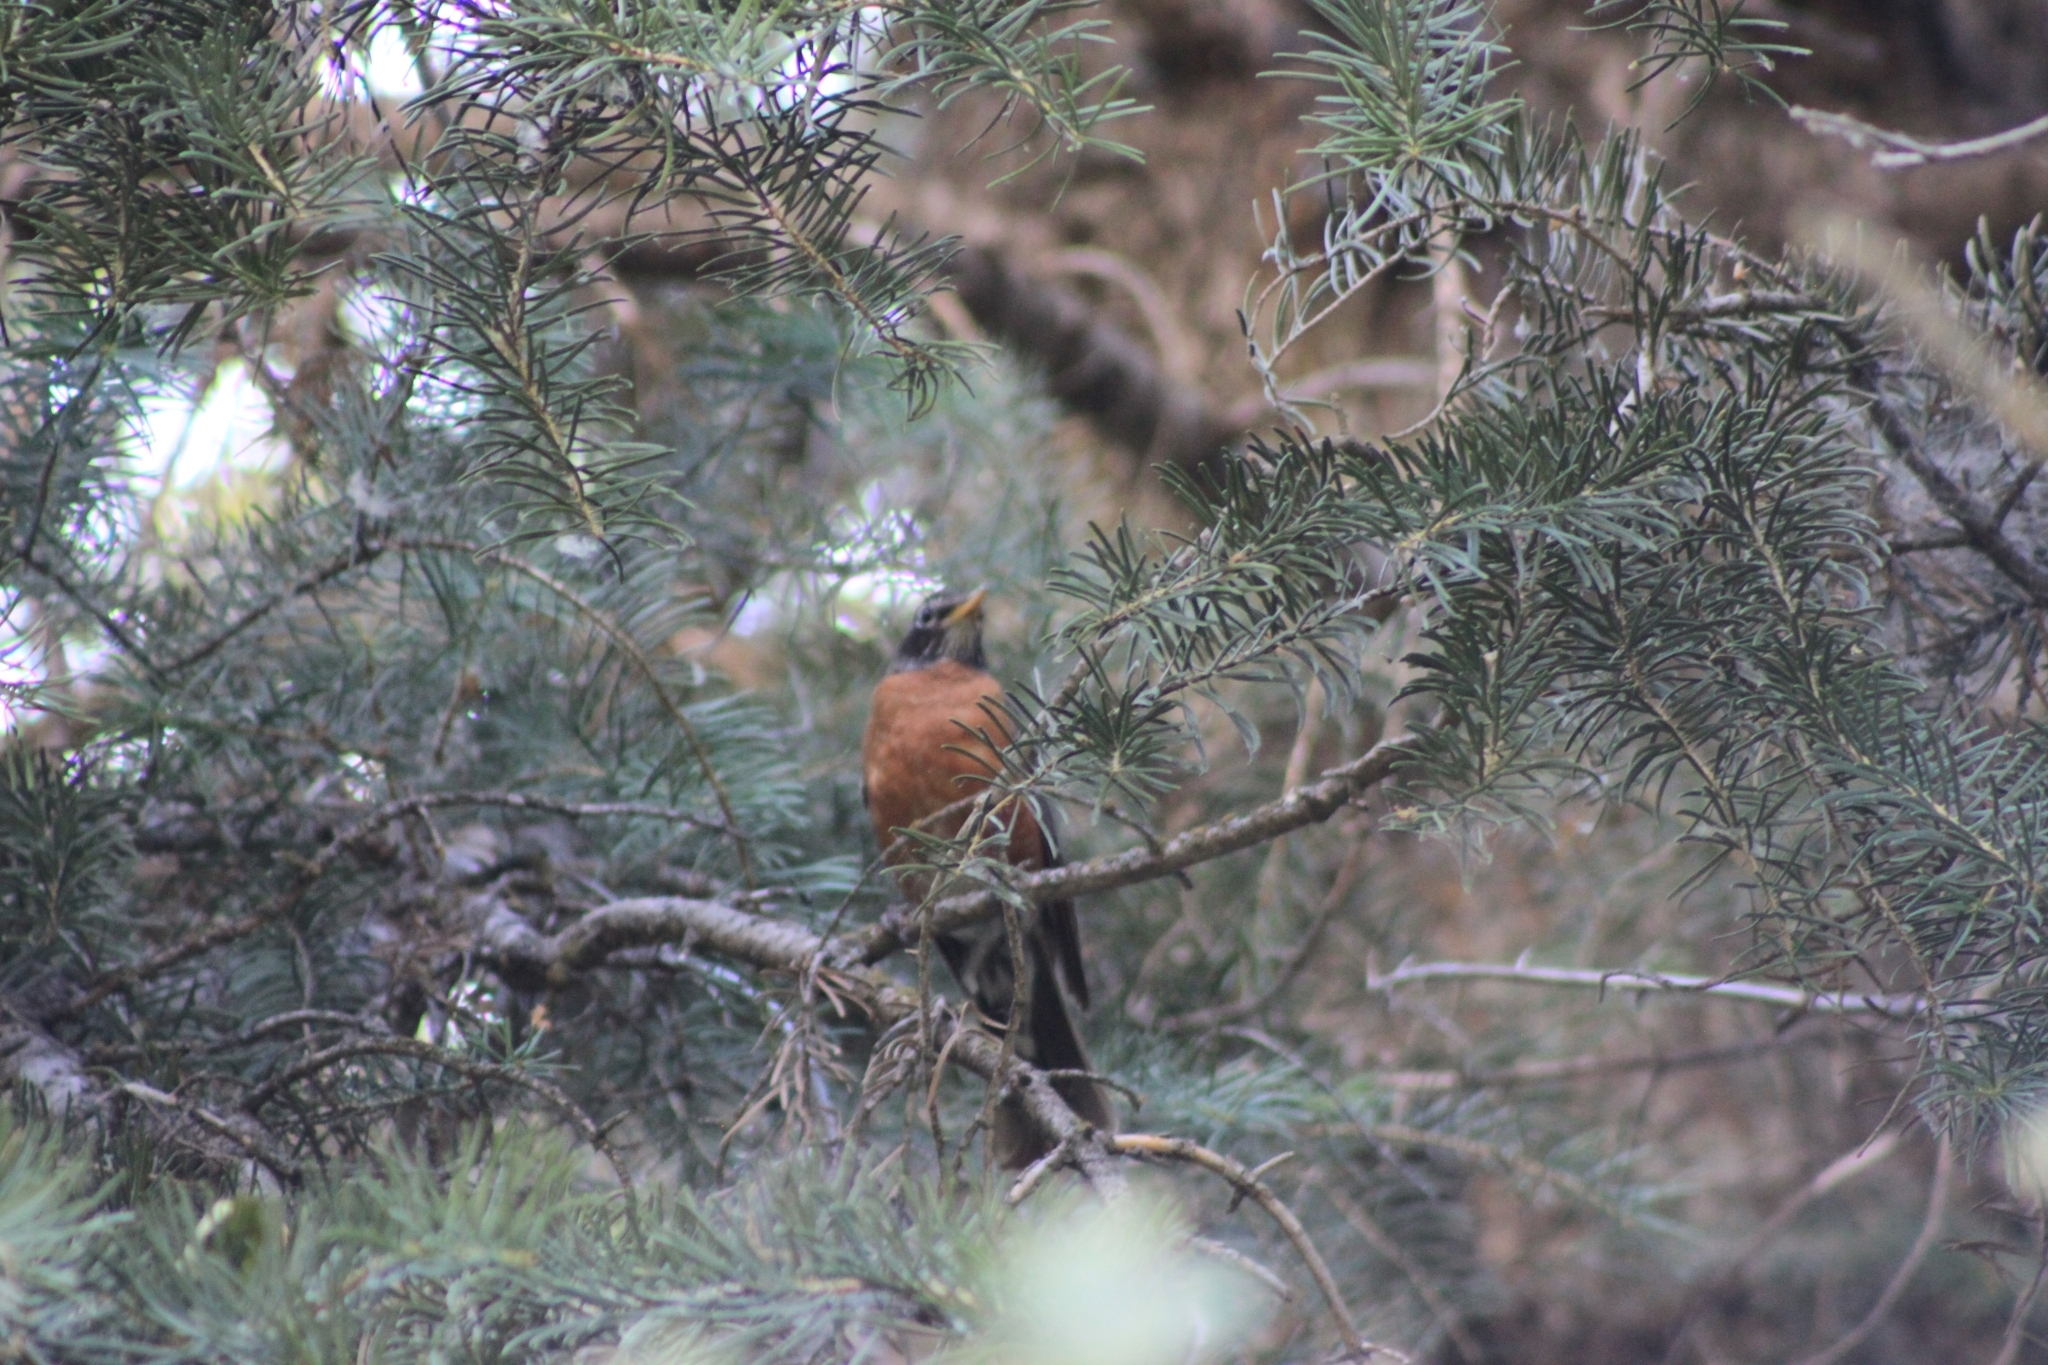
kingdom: Animalia
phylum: Chordata
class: Aves
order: Passeriformes
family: Turdidae
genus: Turdus
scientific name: Turdus migratorius
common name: American robin
